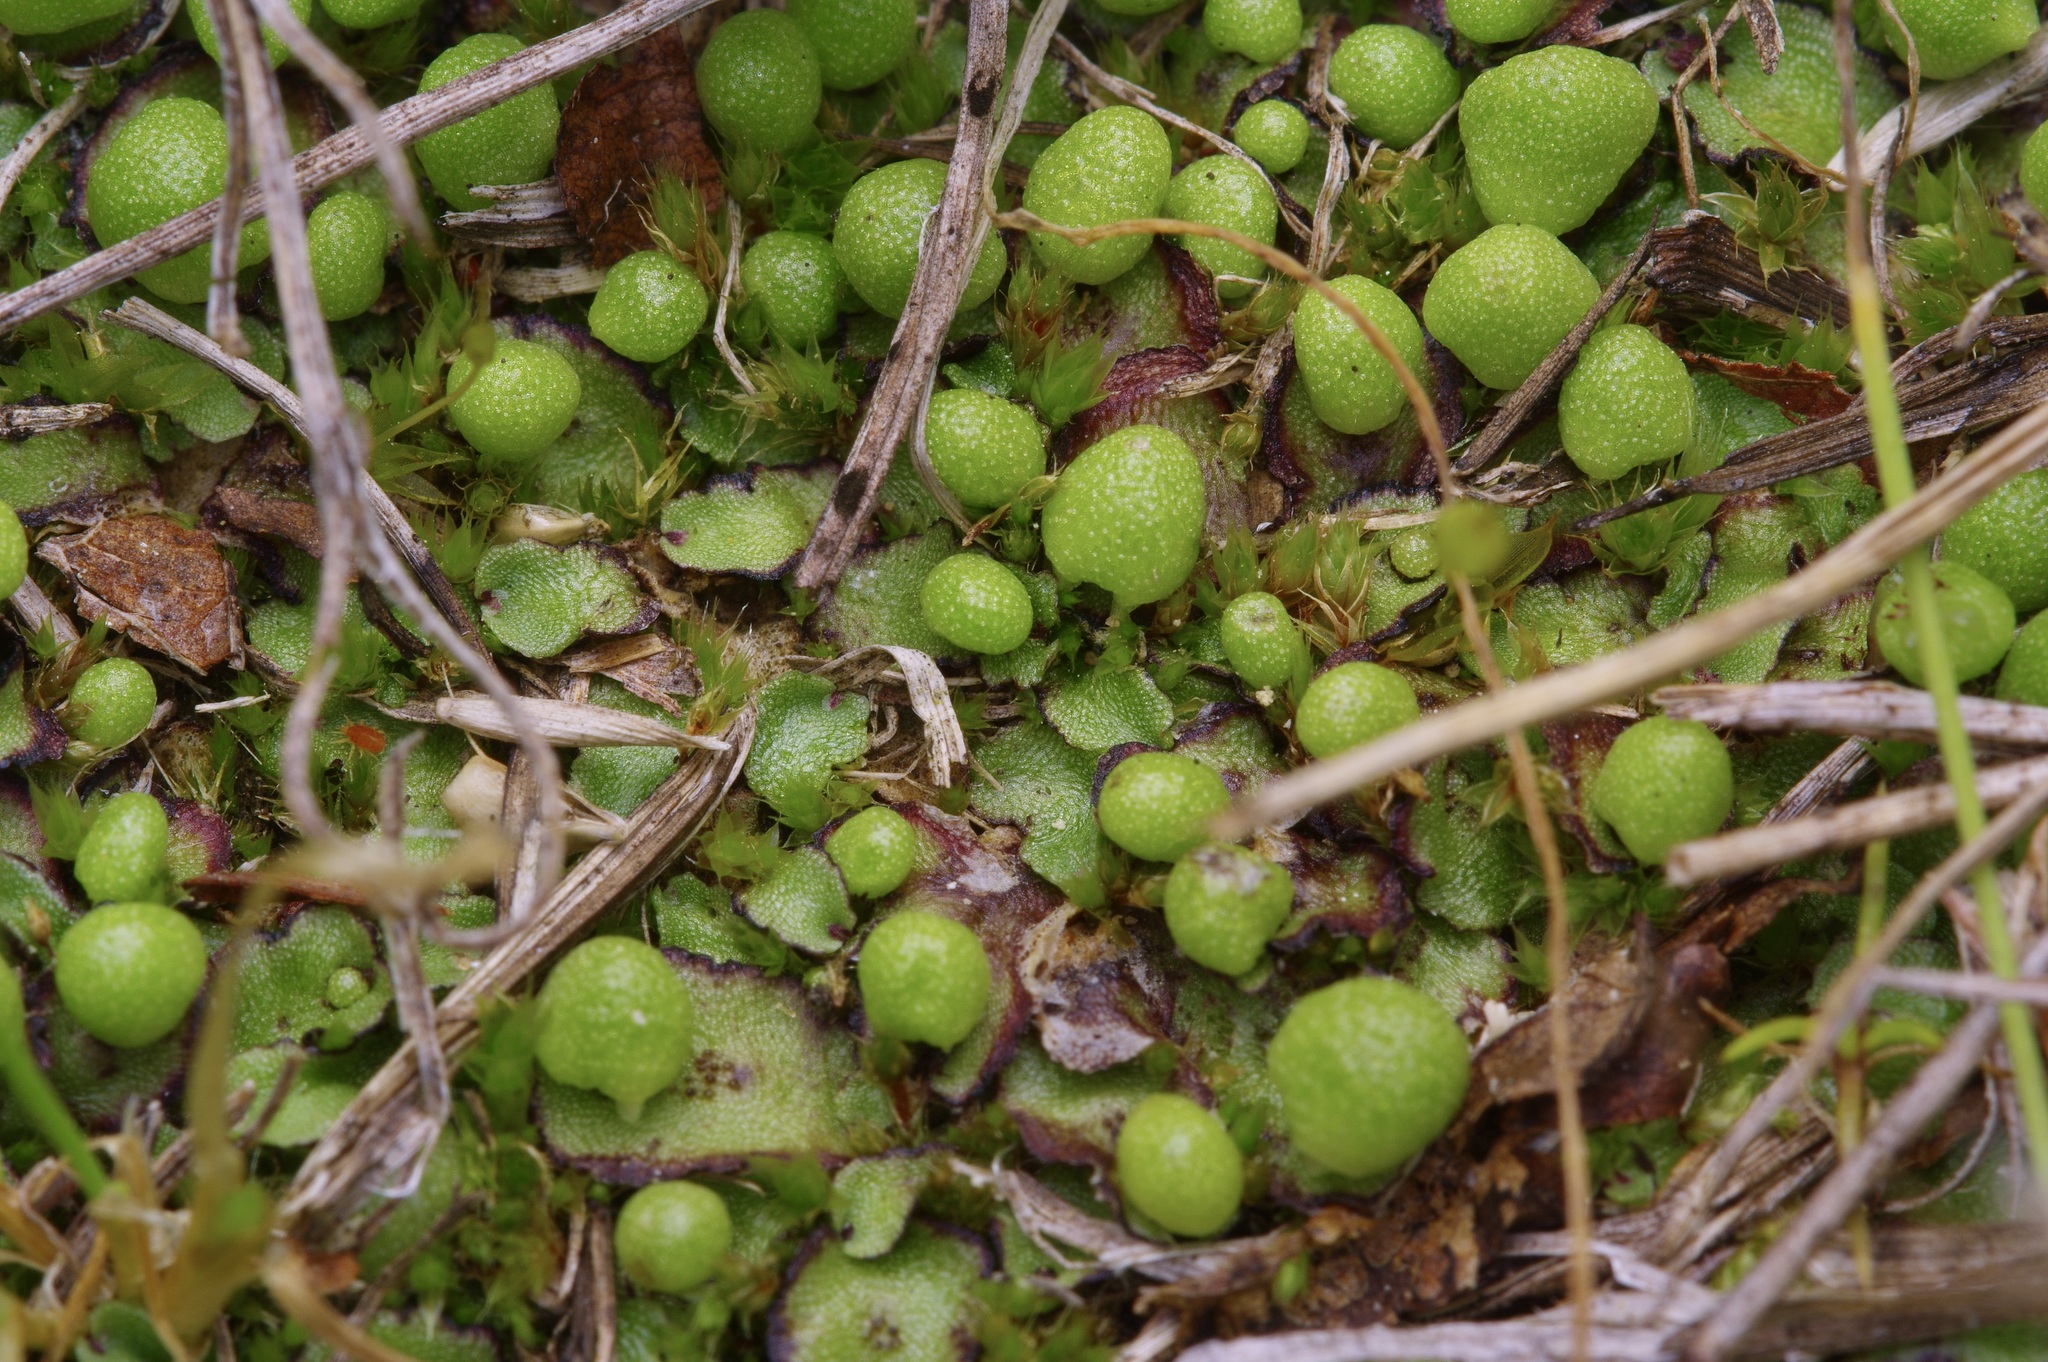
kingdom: Plantae
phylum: Marchantiophyta
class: Marchantiopsida
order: Marchantiales
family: Aytoniaceae
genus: Reboulia
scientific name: Reboulia hemisphaerica
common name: Purple-margined liverwort
